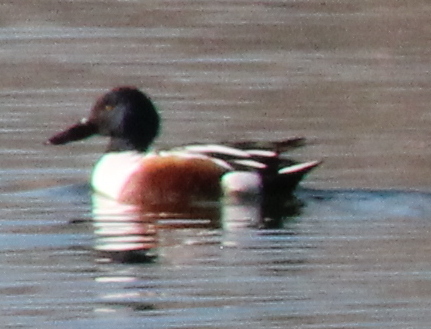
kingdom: Animalia
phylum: Chordata
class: Aves
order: Anseriformes
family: Anatidae
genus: Spatula
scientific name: Spatula clypeata
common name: Northern shoveler
